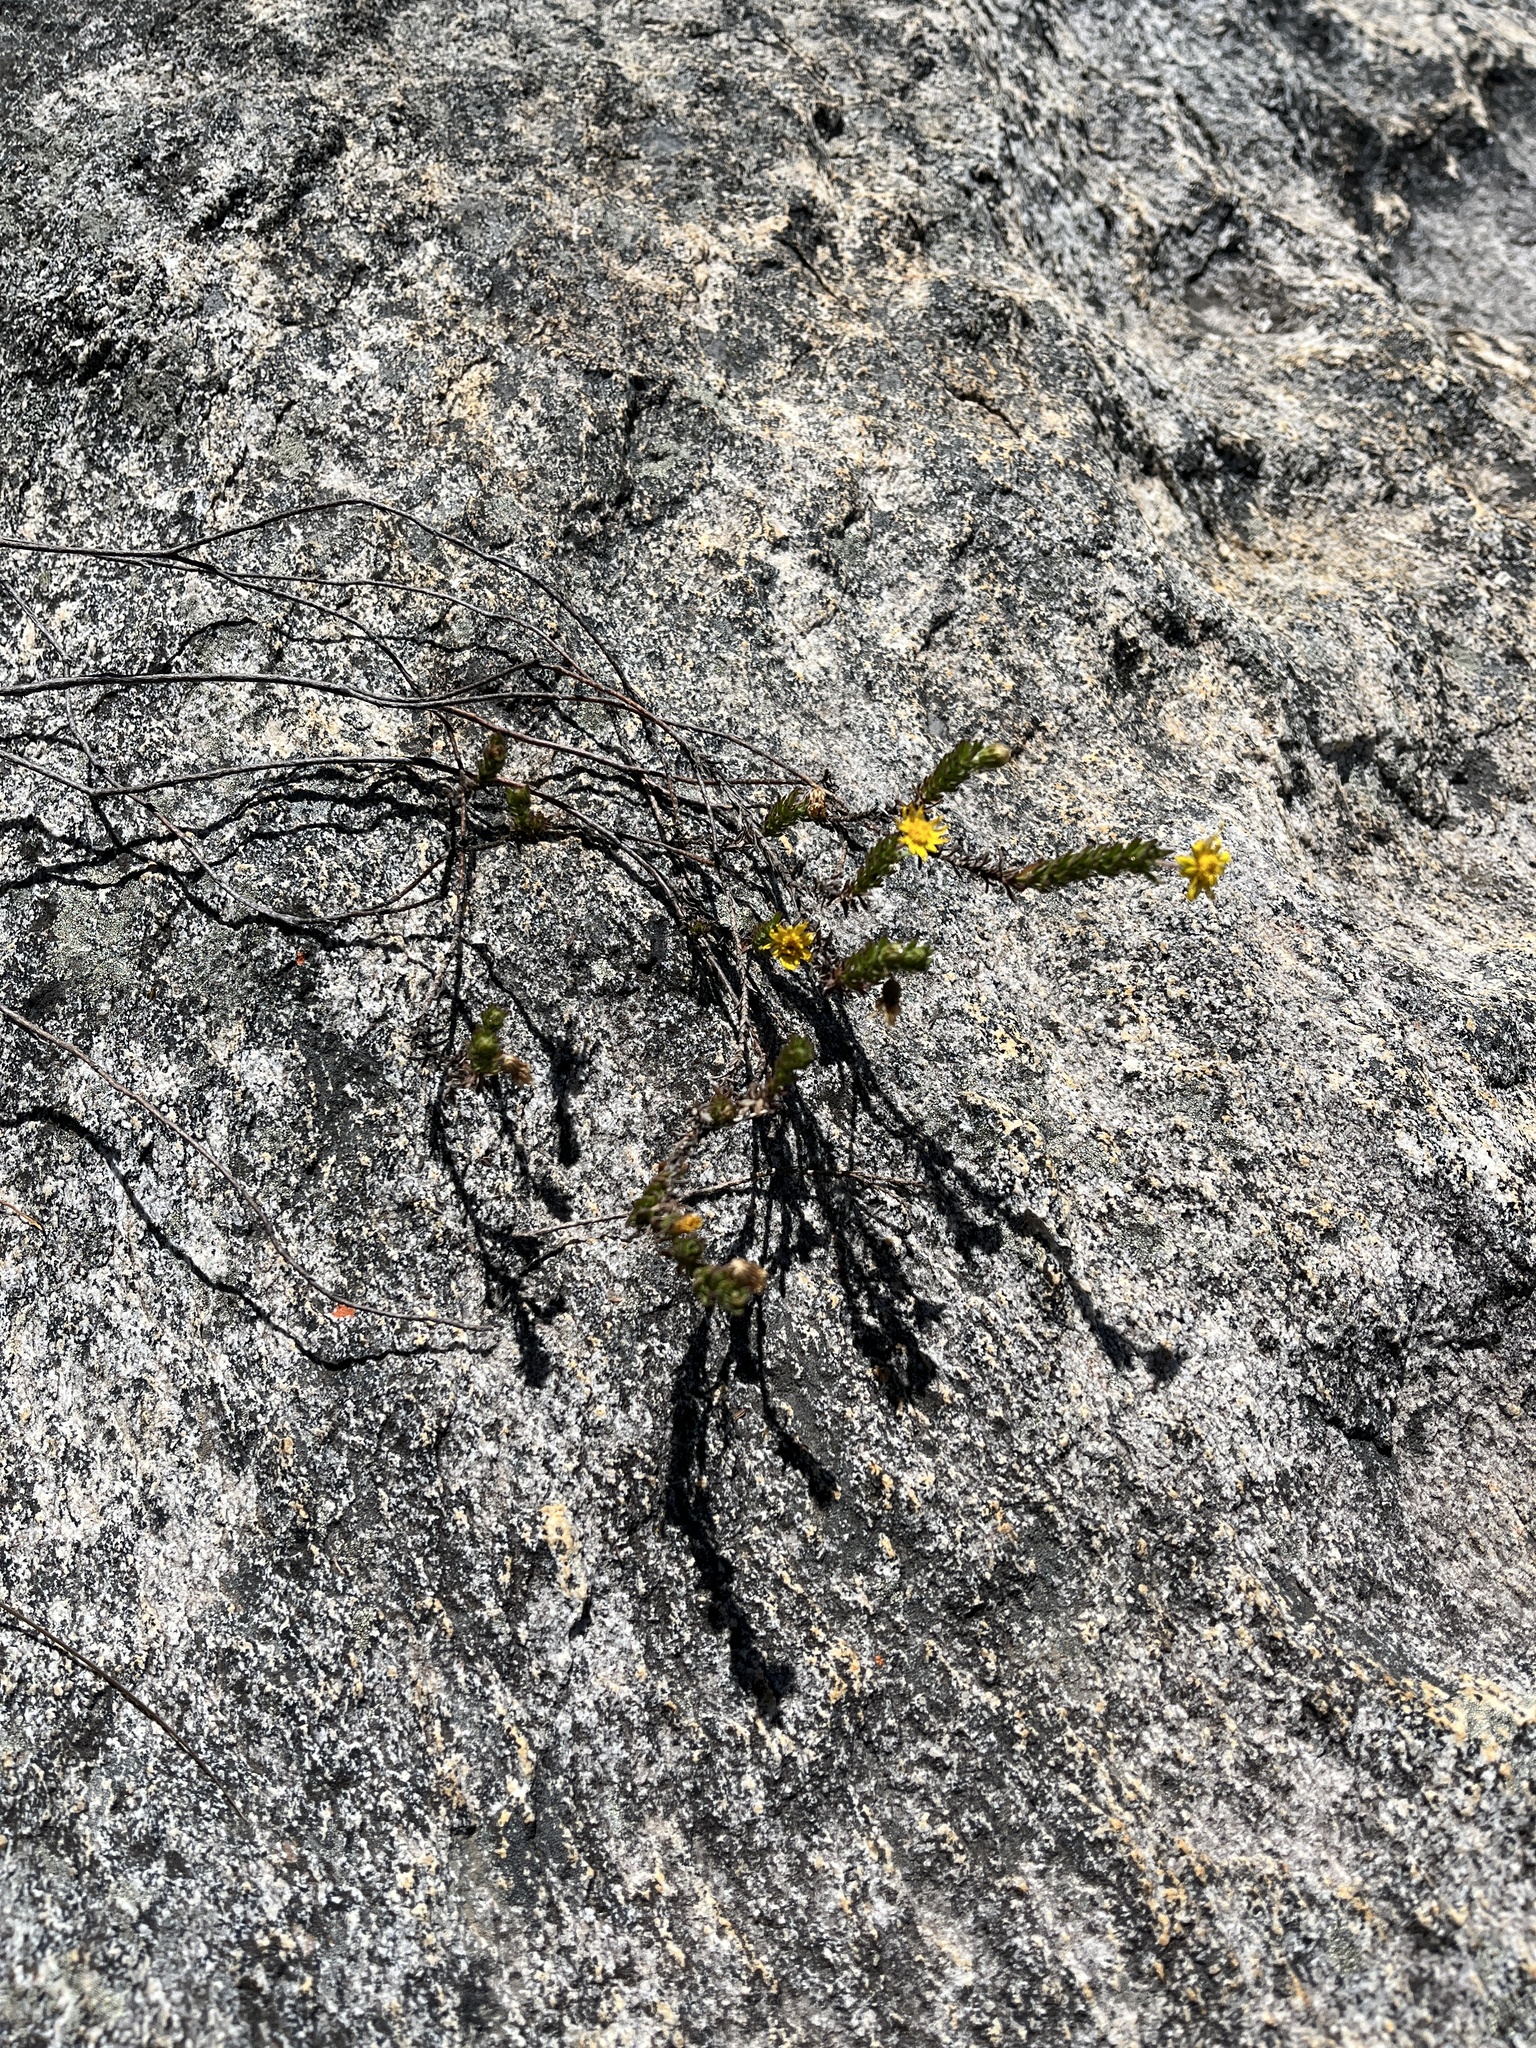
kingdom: Plantae
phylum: Tracheophyta
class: Magnoliopsida
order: Asterales
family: Asteraceae
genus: Ursinia
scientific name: Ursinia trifida
